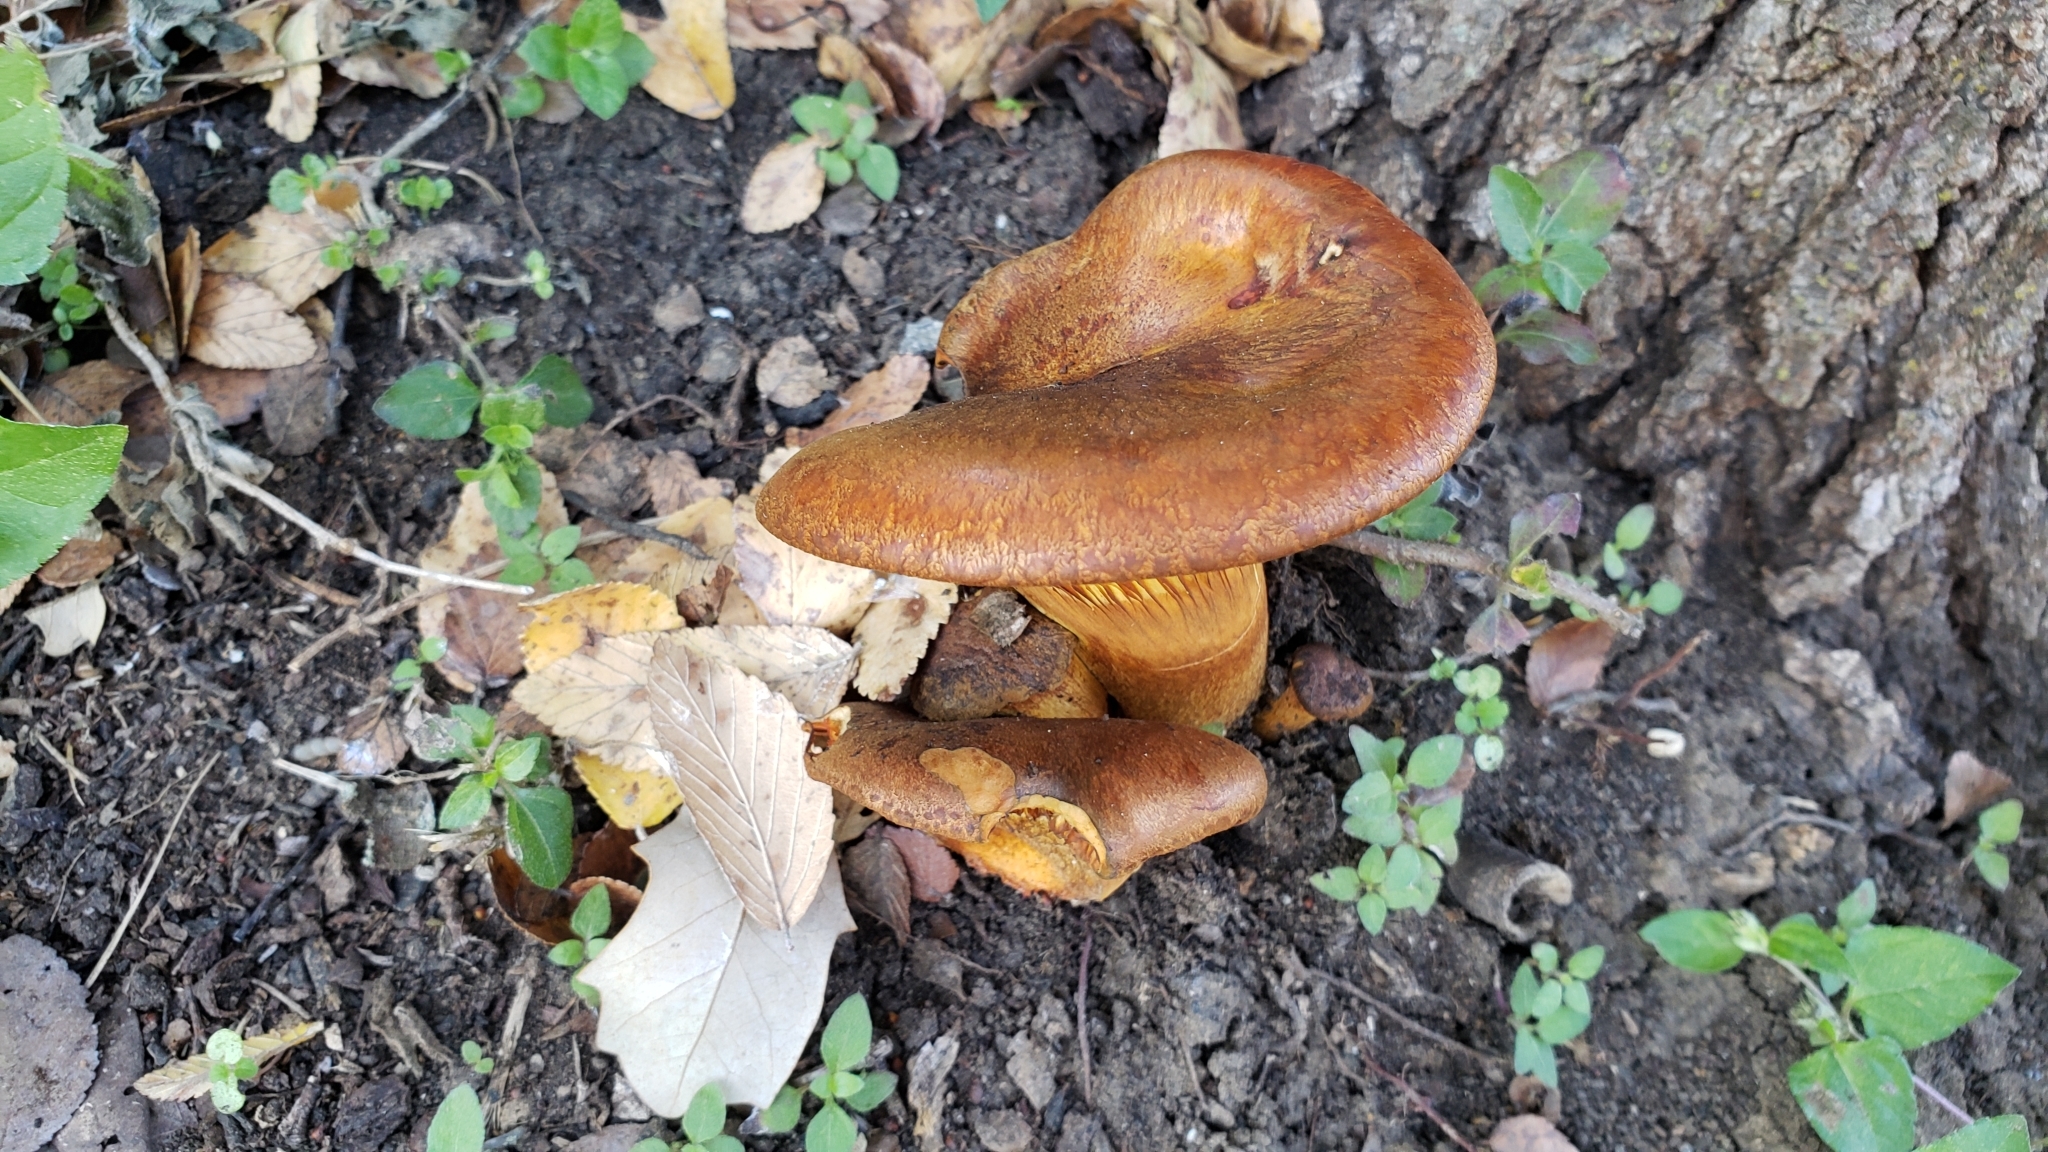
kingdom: Fungi
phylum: Basidiomycota
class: Agaricomycetes
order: Agaricales
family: Omphalotaceae
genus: Omphalotus
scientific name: Omphalotus subilludens
